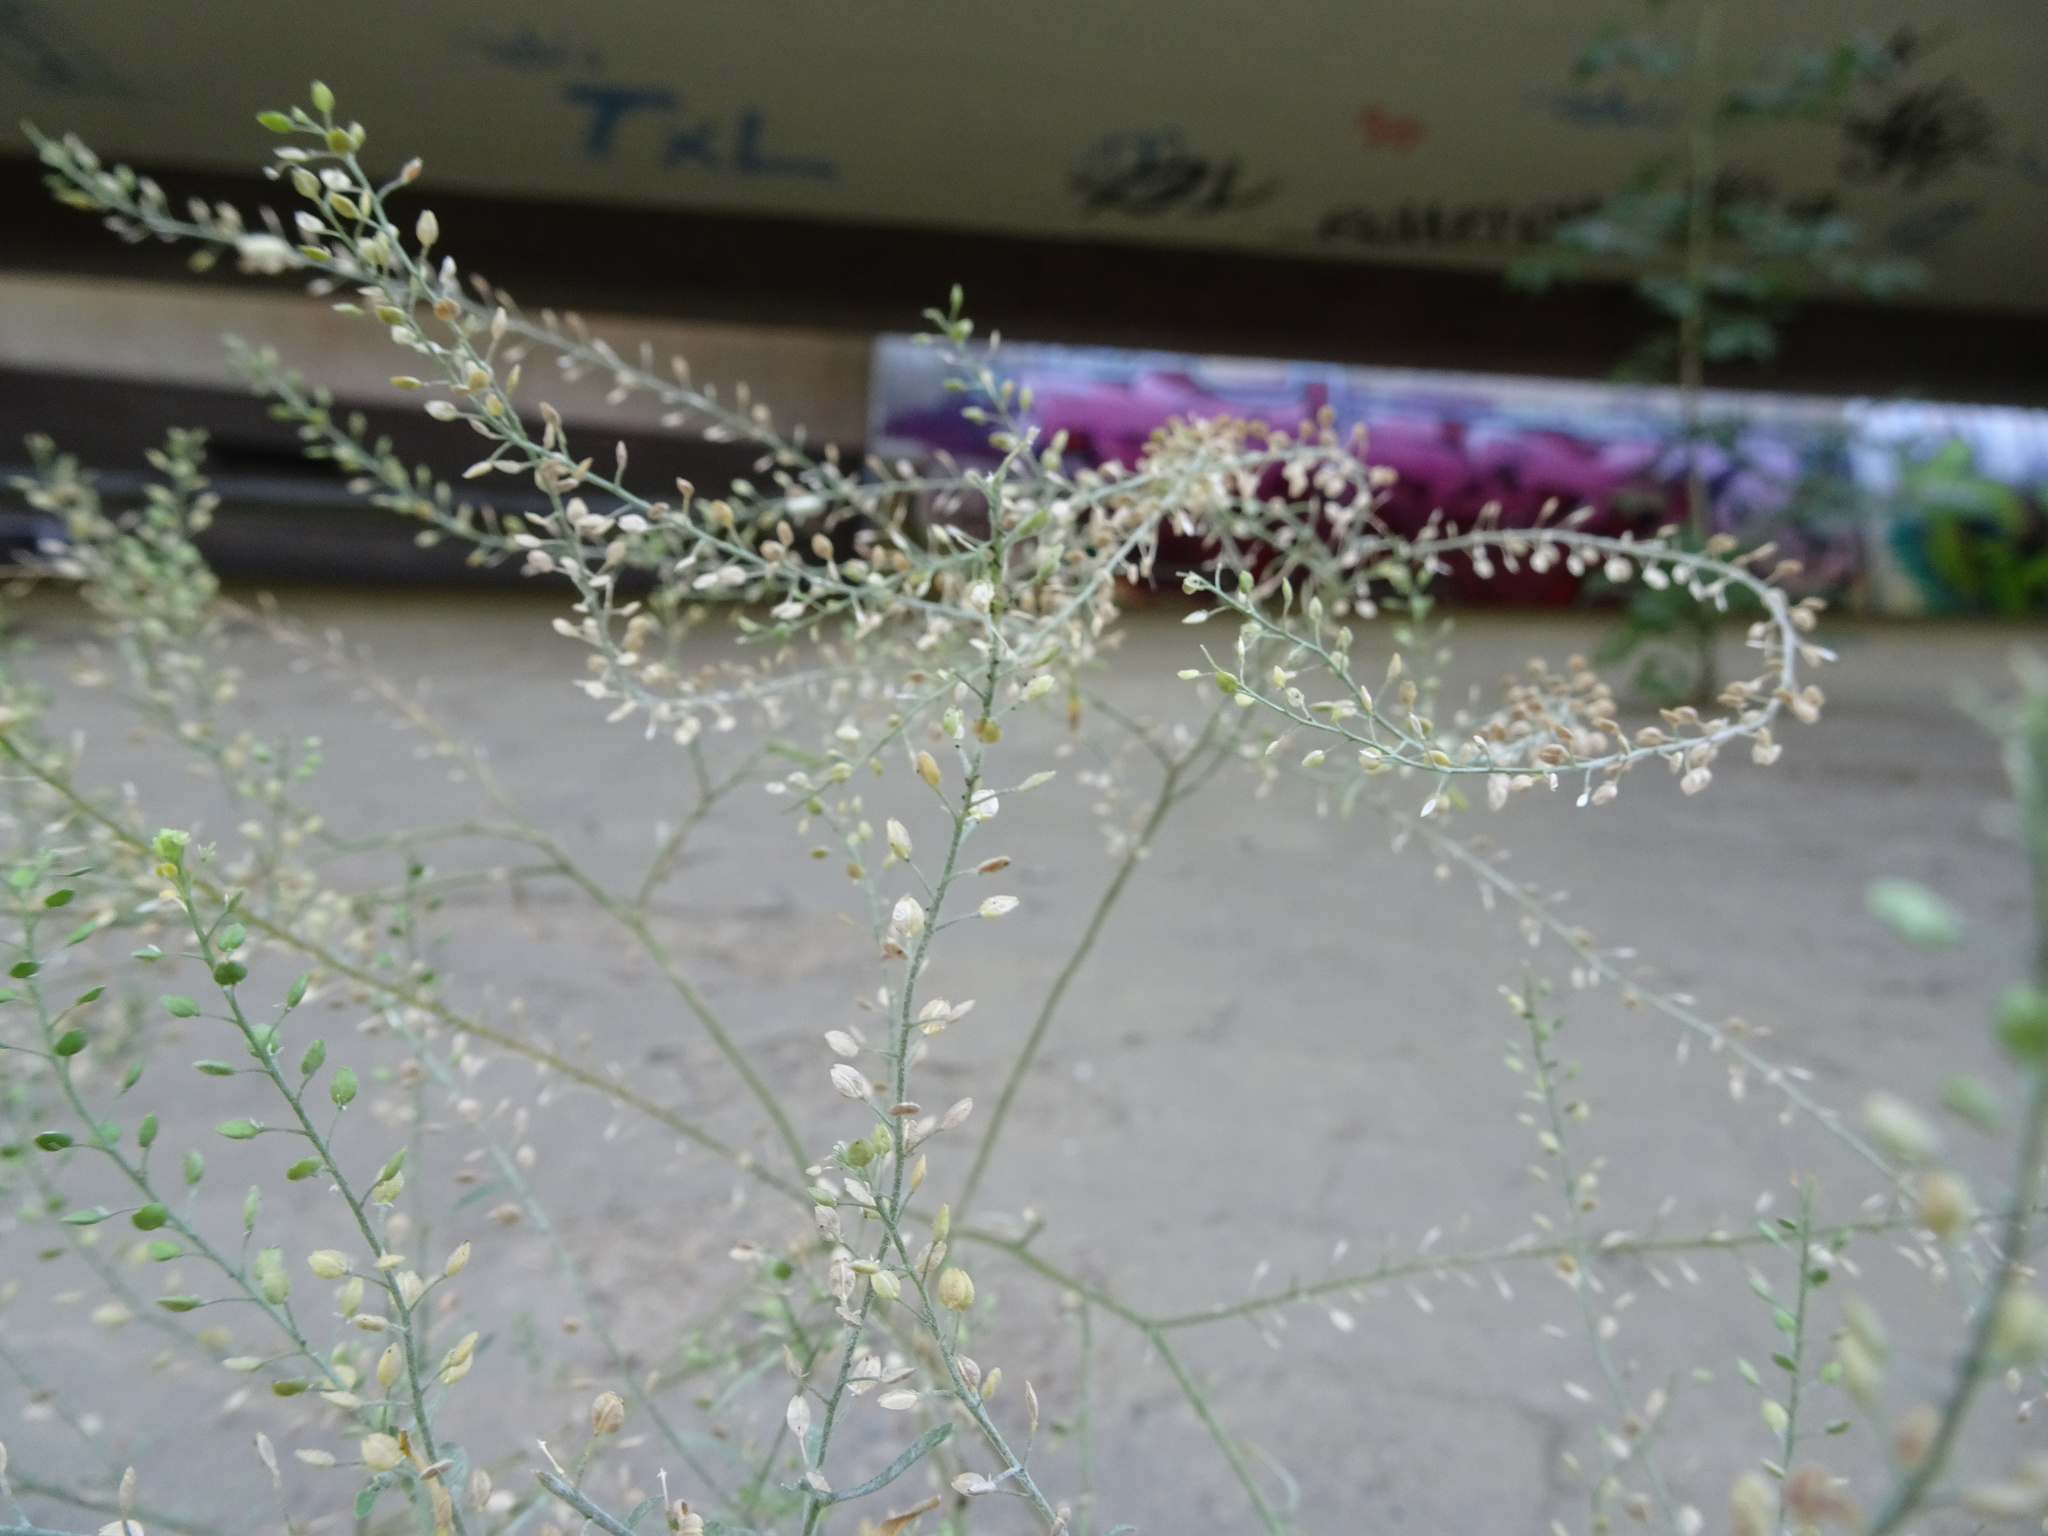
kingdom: Plantae
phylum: Tracheophyta
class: Magnoliopsida
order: Brassicales
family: Brassicaceae
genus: Lepidium
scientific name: Lepidium ruderale
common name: Narrow-leaved pepperwort
